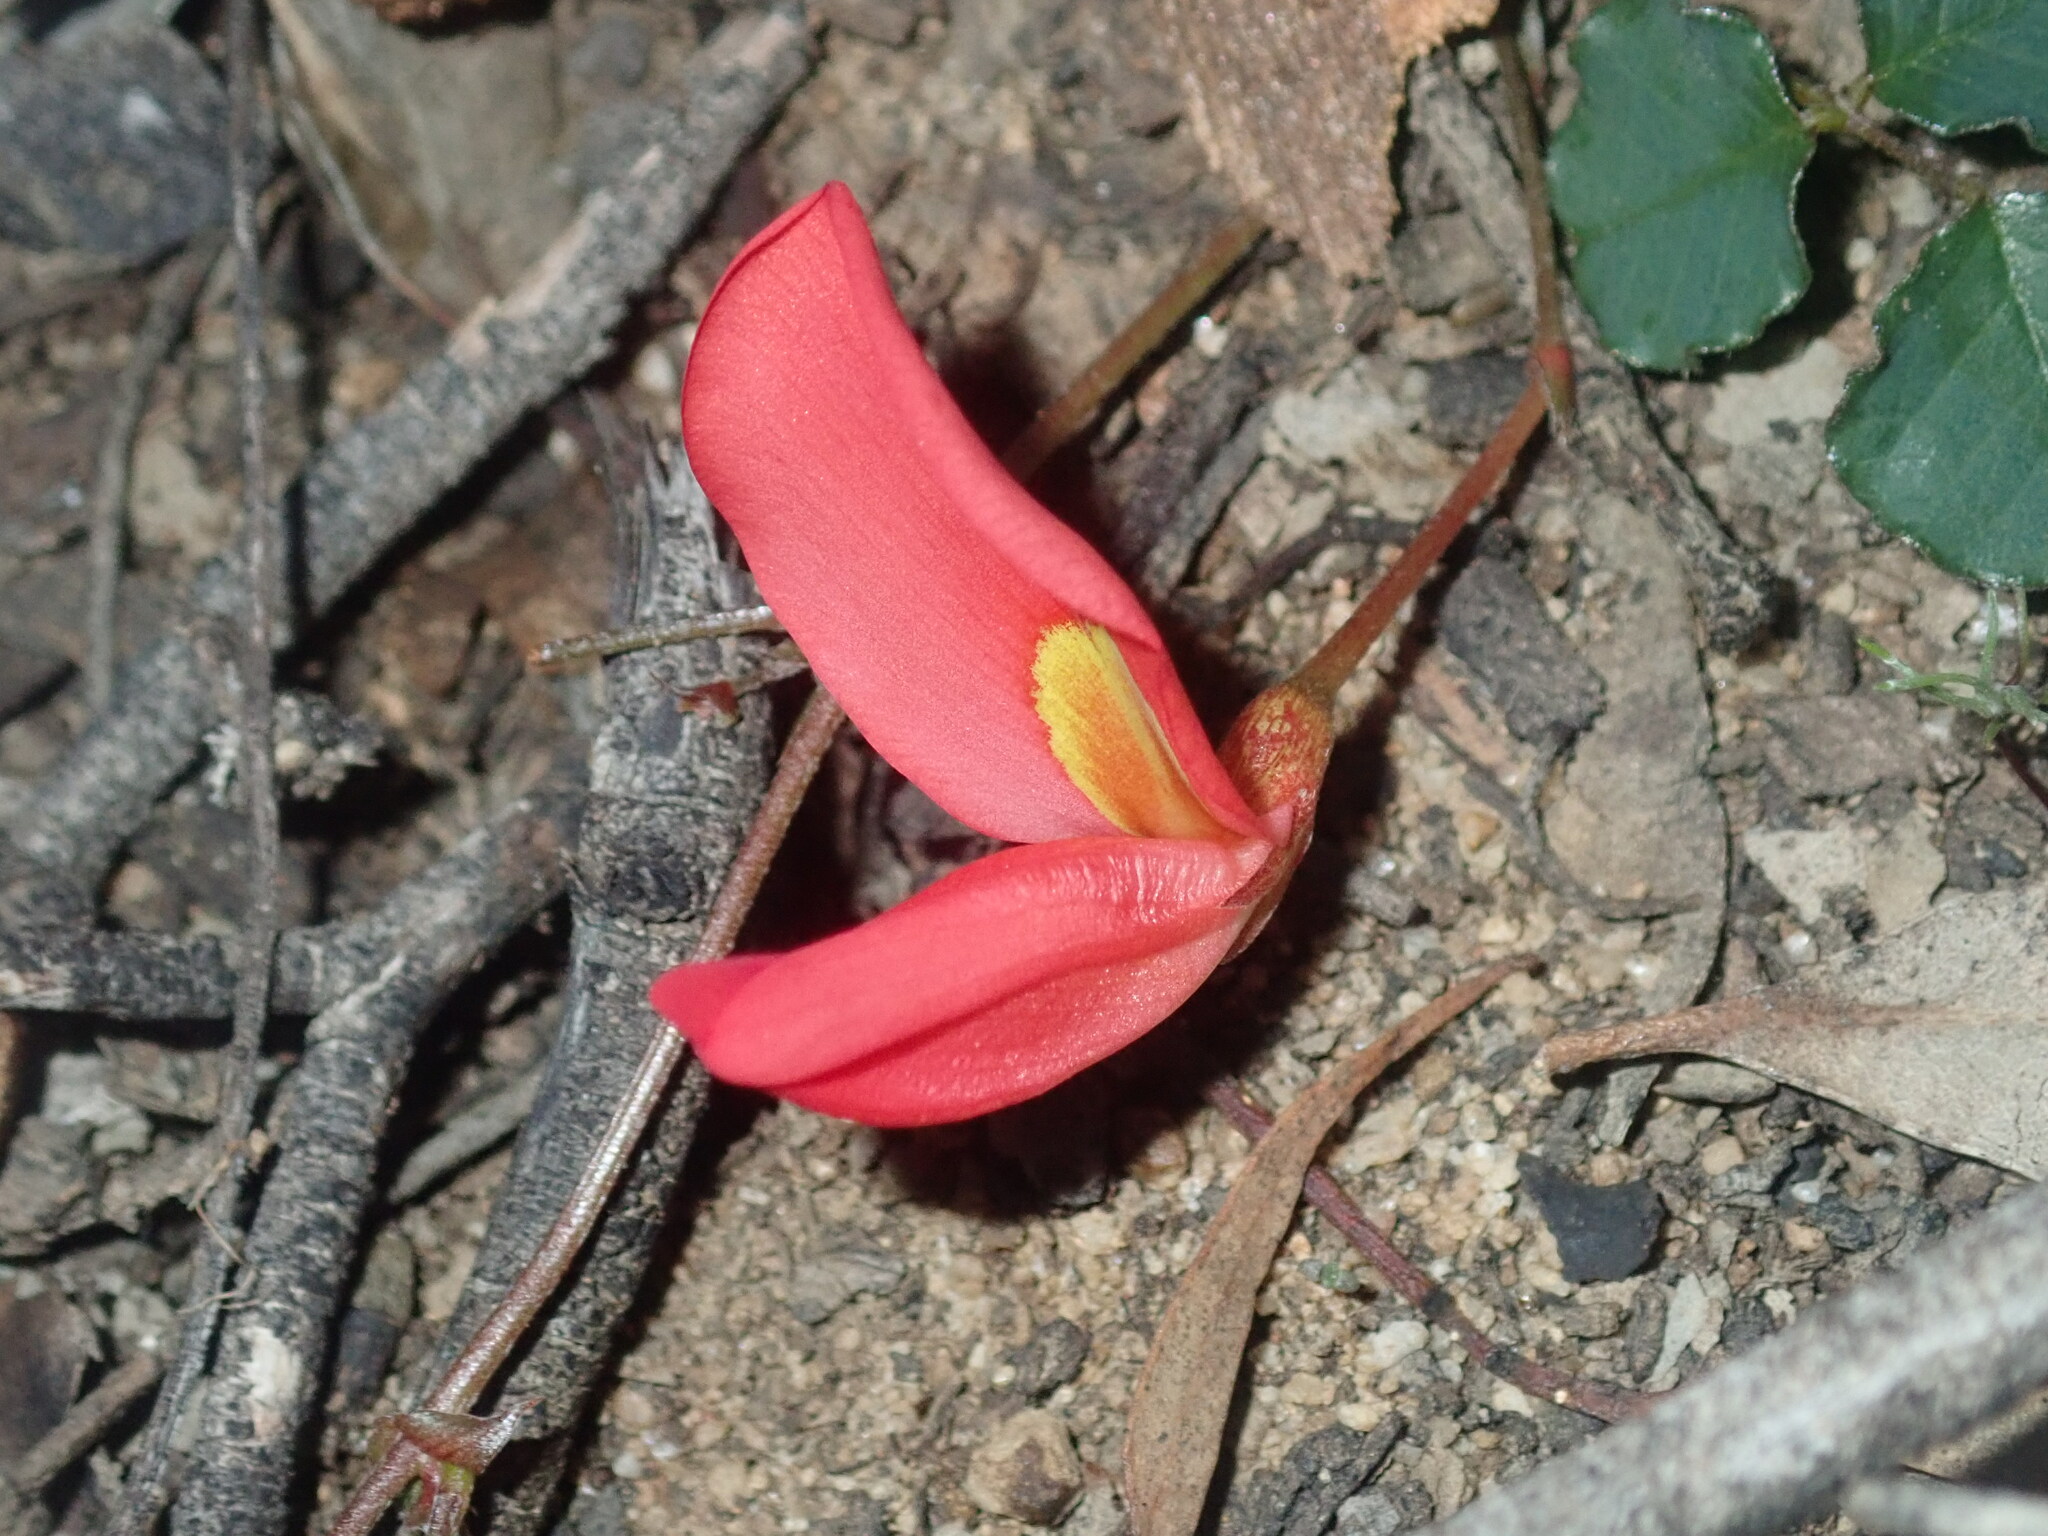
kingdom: Plantae
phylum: Tracheophyta
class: Magnoliopsida
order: Fabales
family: Fabaceae
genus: Kennedia
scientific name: Kennedia prostrata
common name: Running-postman
